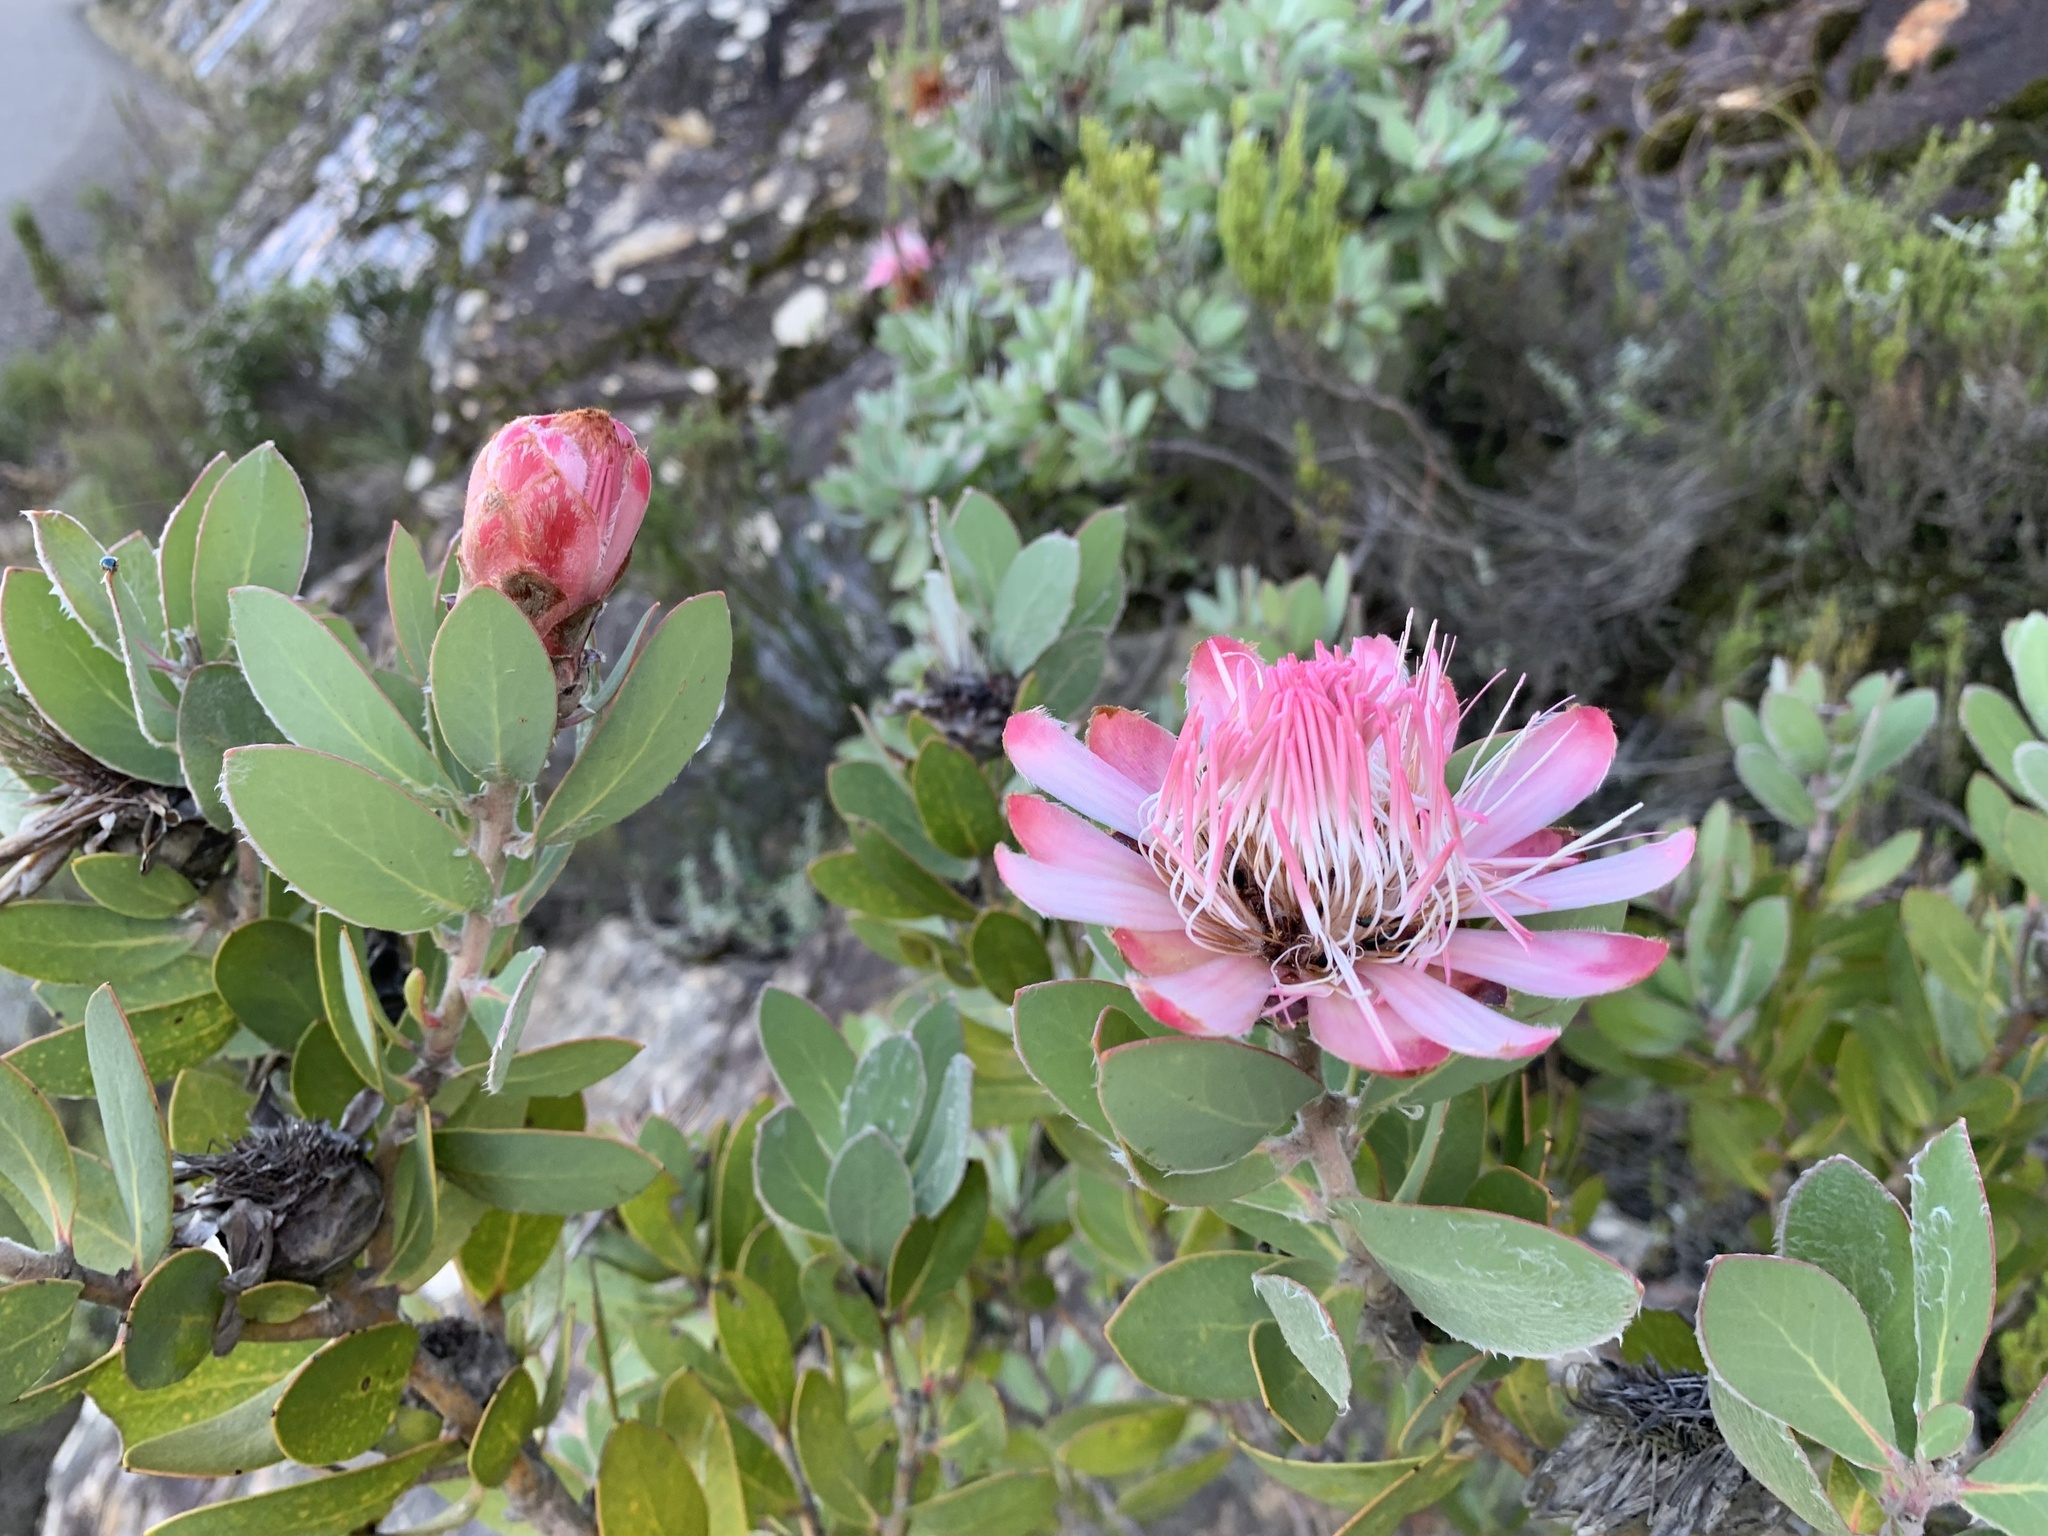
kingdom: Plantae
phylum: Tracheophyta
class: Magnoliopsida
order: Proteales
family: Proteaceae
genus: Protea
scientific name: Protea punctata
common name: Water sugarbush
